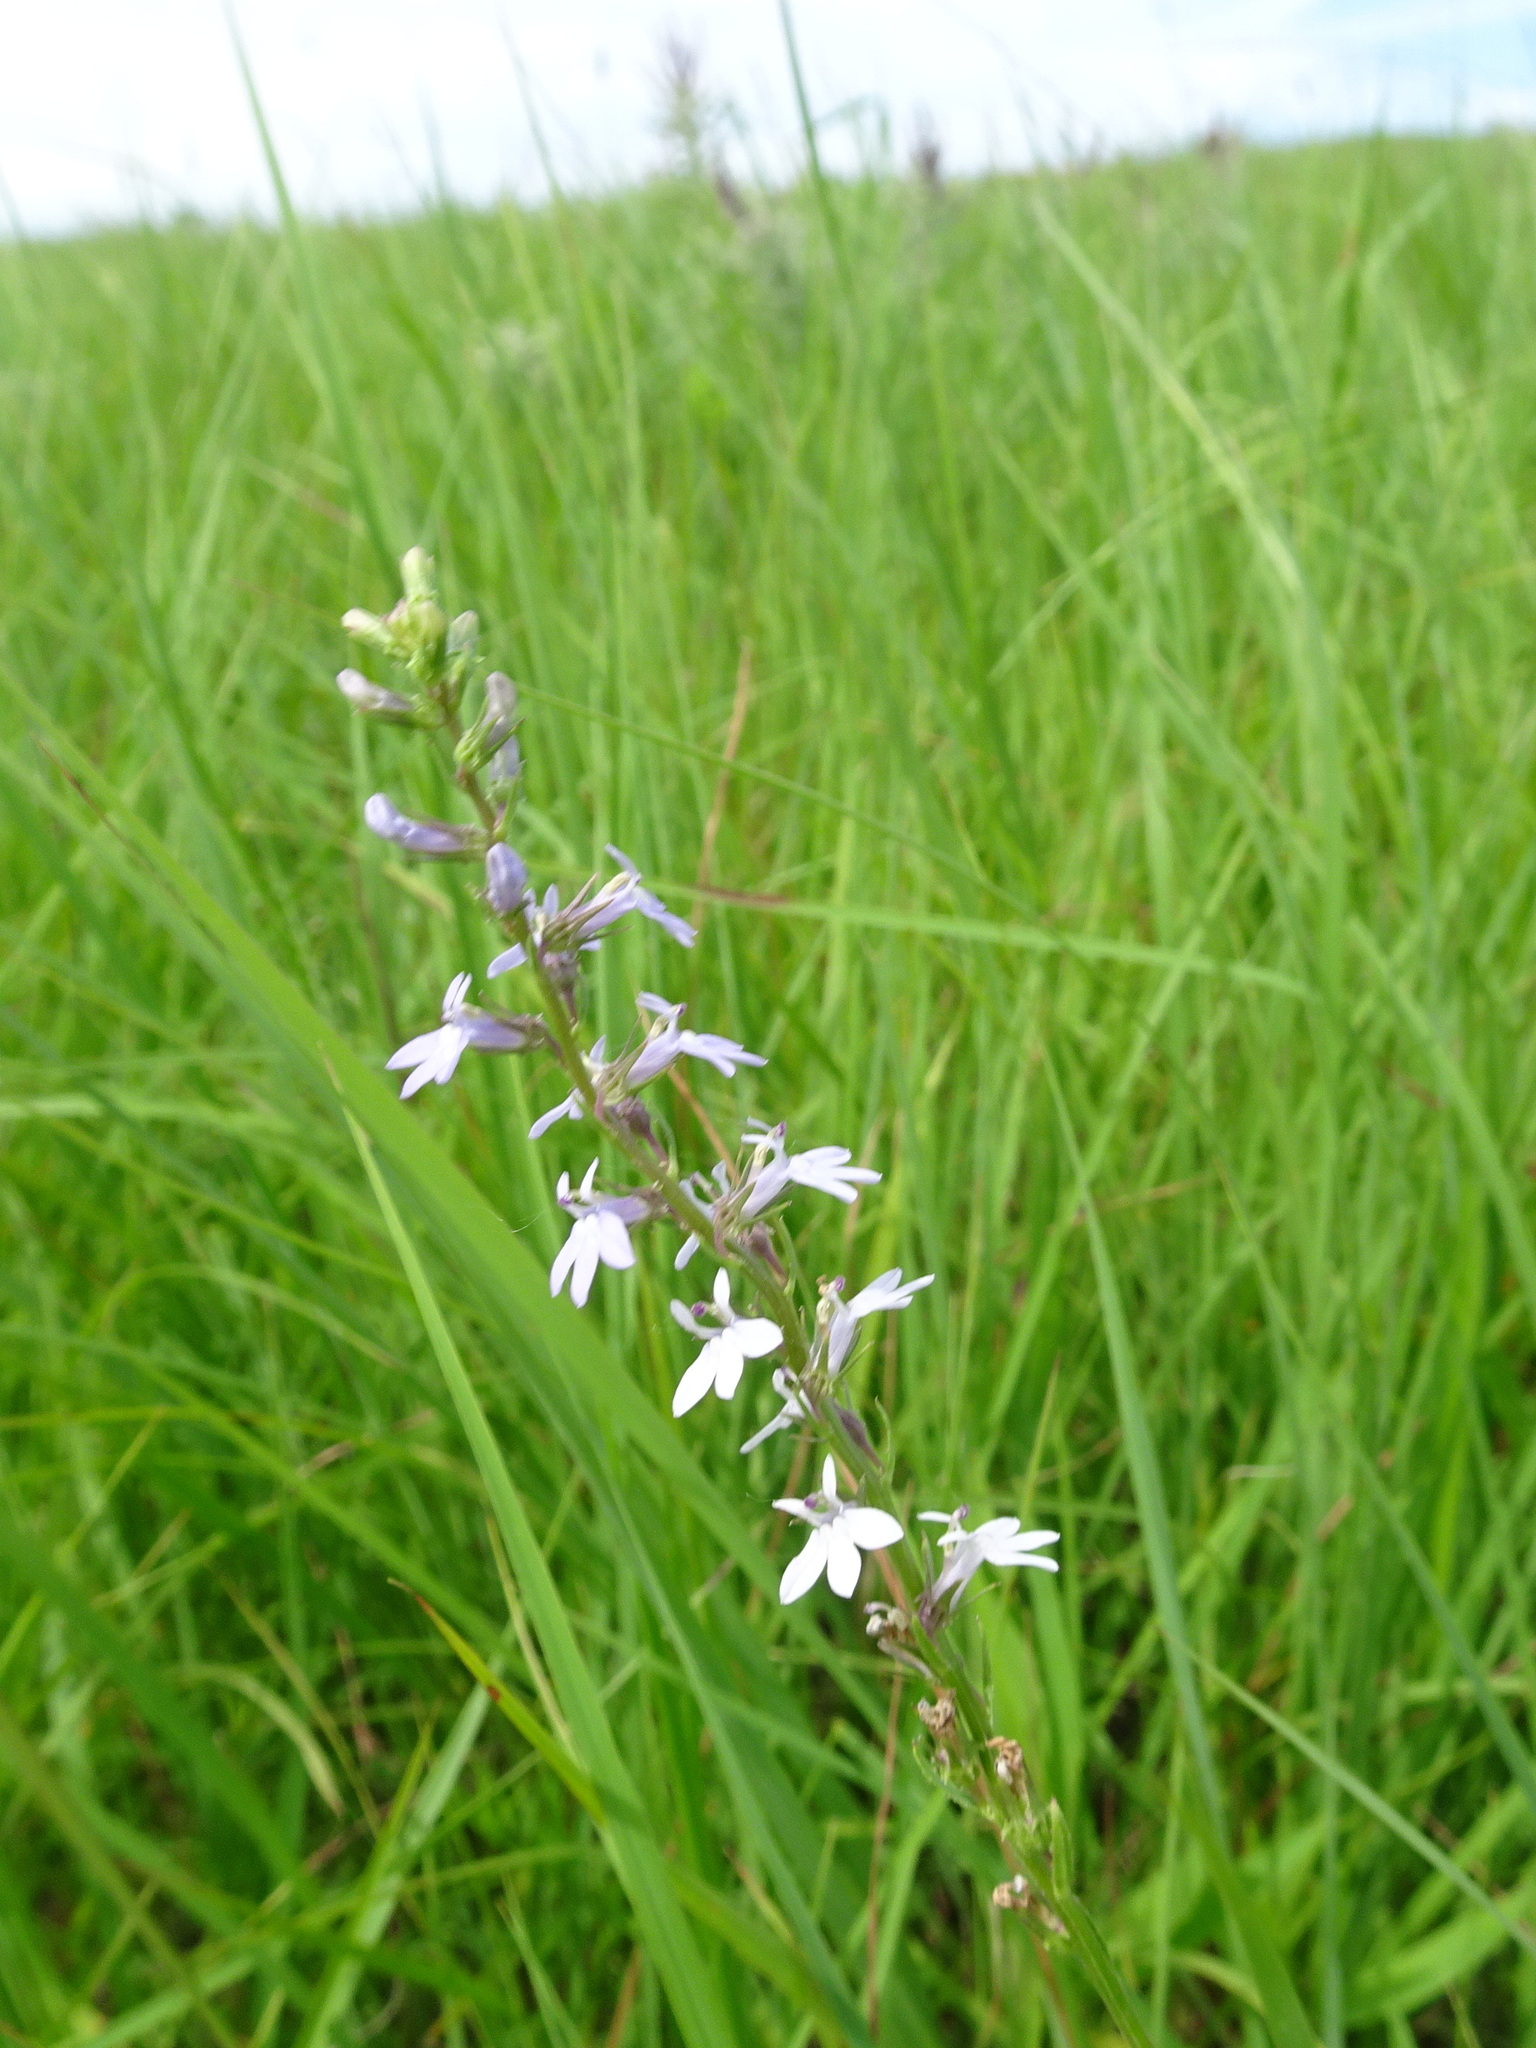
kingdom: Plantae
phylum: Tracheophyta
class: Magnoliopsida
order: Asterales
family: Campanulaceae
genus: Lobelia
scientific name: Lobelia spicata
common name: Pale-spike lobelia
